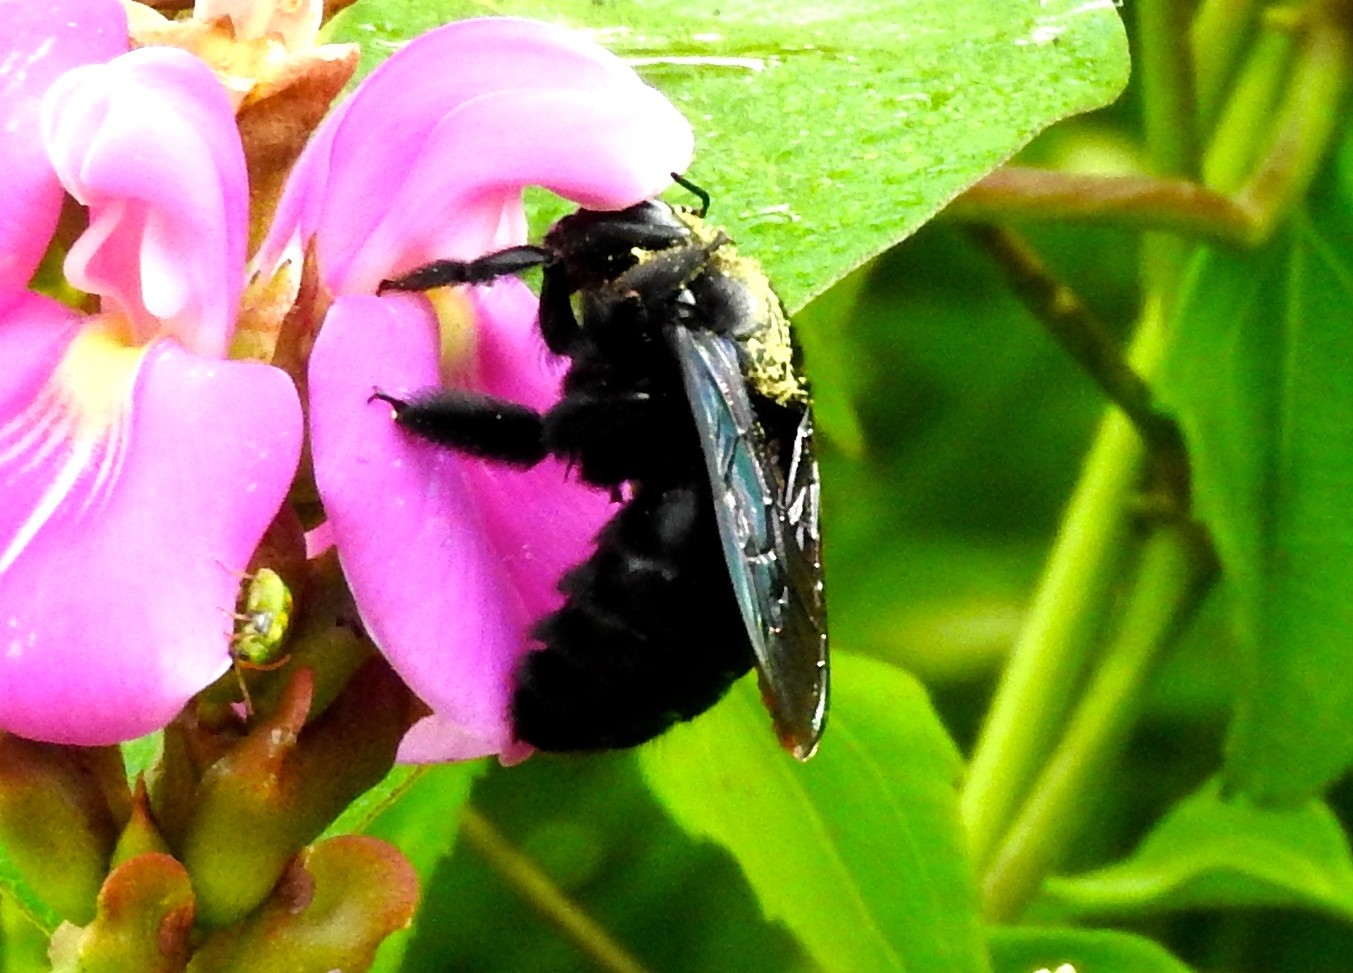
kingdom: Animalia
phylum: Arthropoda
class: Insecta
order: Hymenoptera
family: Apidae
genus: Xylocopa
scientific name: Xylocopa fimbriata
